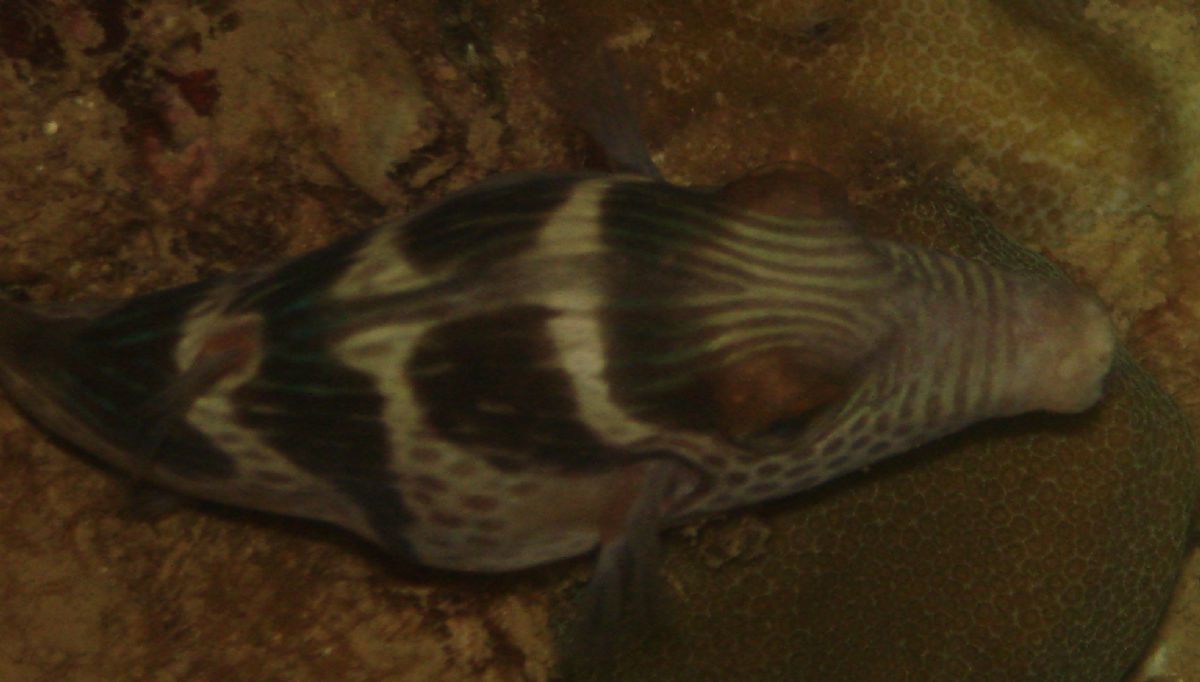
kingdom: Animalia
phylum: Chordata
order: Tetraodontiformes
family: Tetraodontidae
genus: Canthigaster
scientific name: Canthigaster valentini
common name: Banded toby
